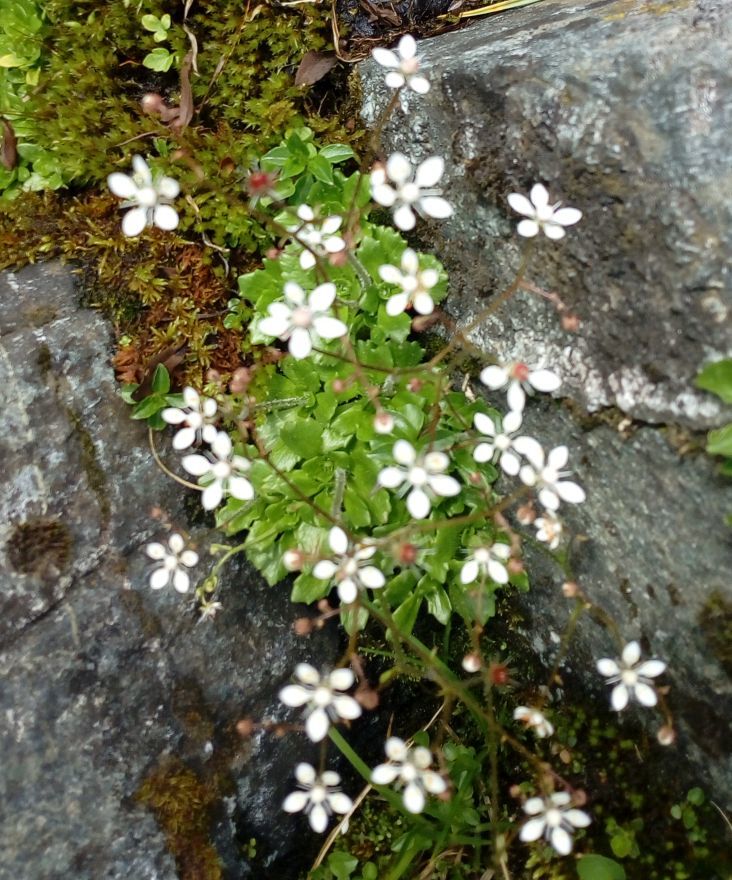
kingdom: Plantae
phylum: Tracheophyta
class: Magnoliopsida
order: Saxifragales
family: Saxifragaceae
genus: Micranthes
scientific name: Micranthes stellaris
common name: Starry saxifrage
